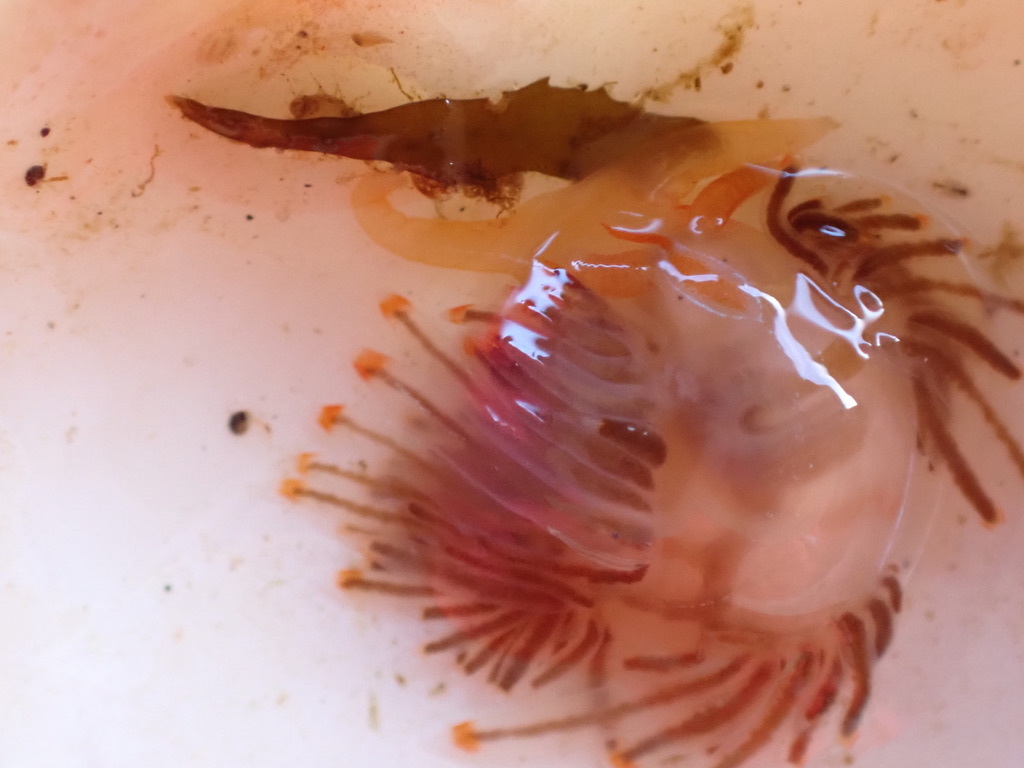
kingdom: Animalia
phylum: Mollusca
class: Gastropoda
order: Nudibranchia
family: Myrrhinidae
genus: Hermissenda
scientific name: Hermissenda crassicornis
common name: Hermissenda
